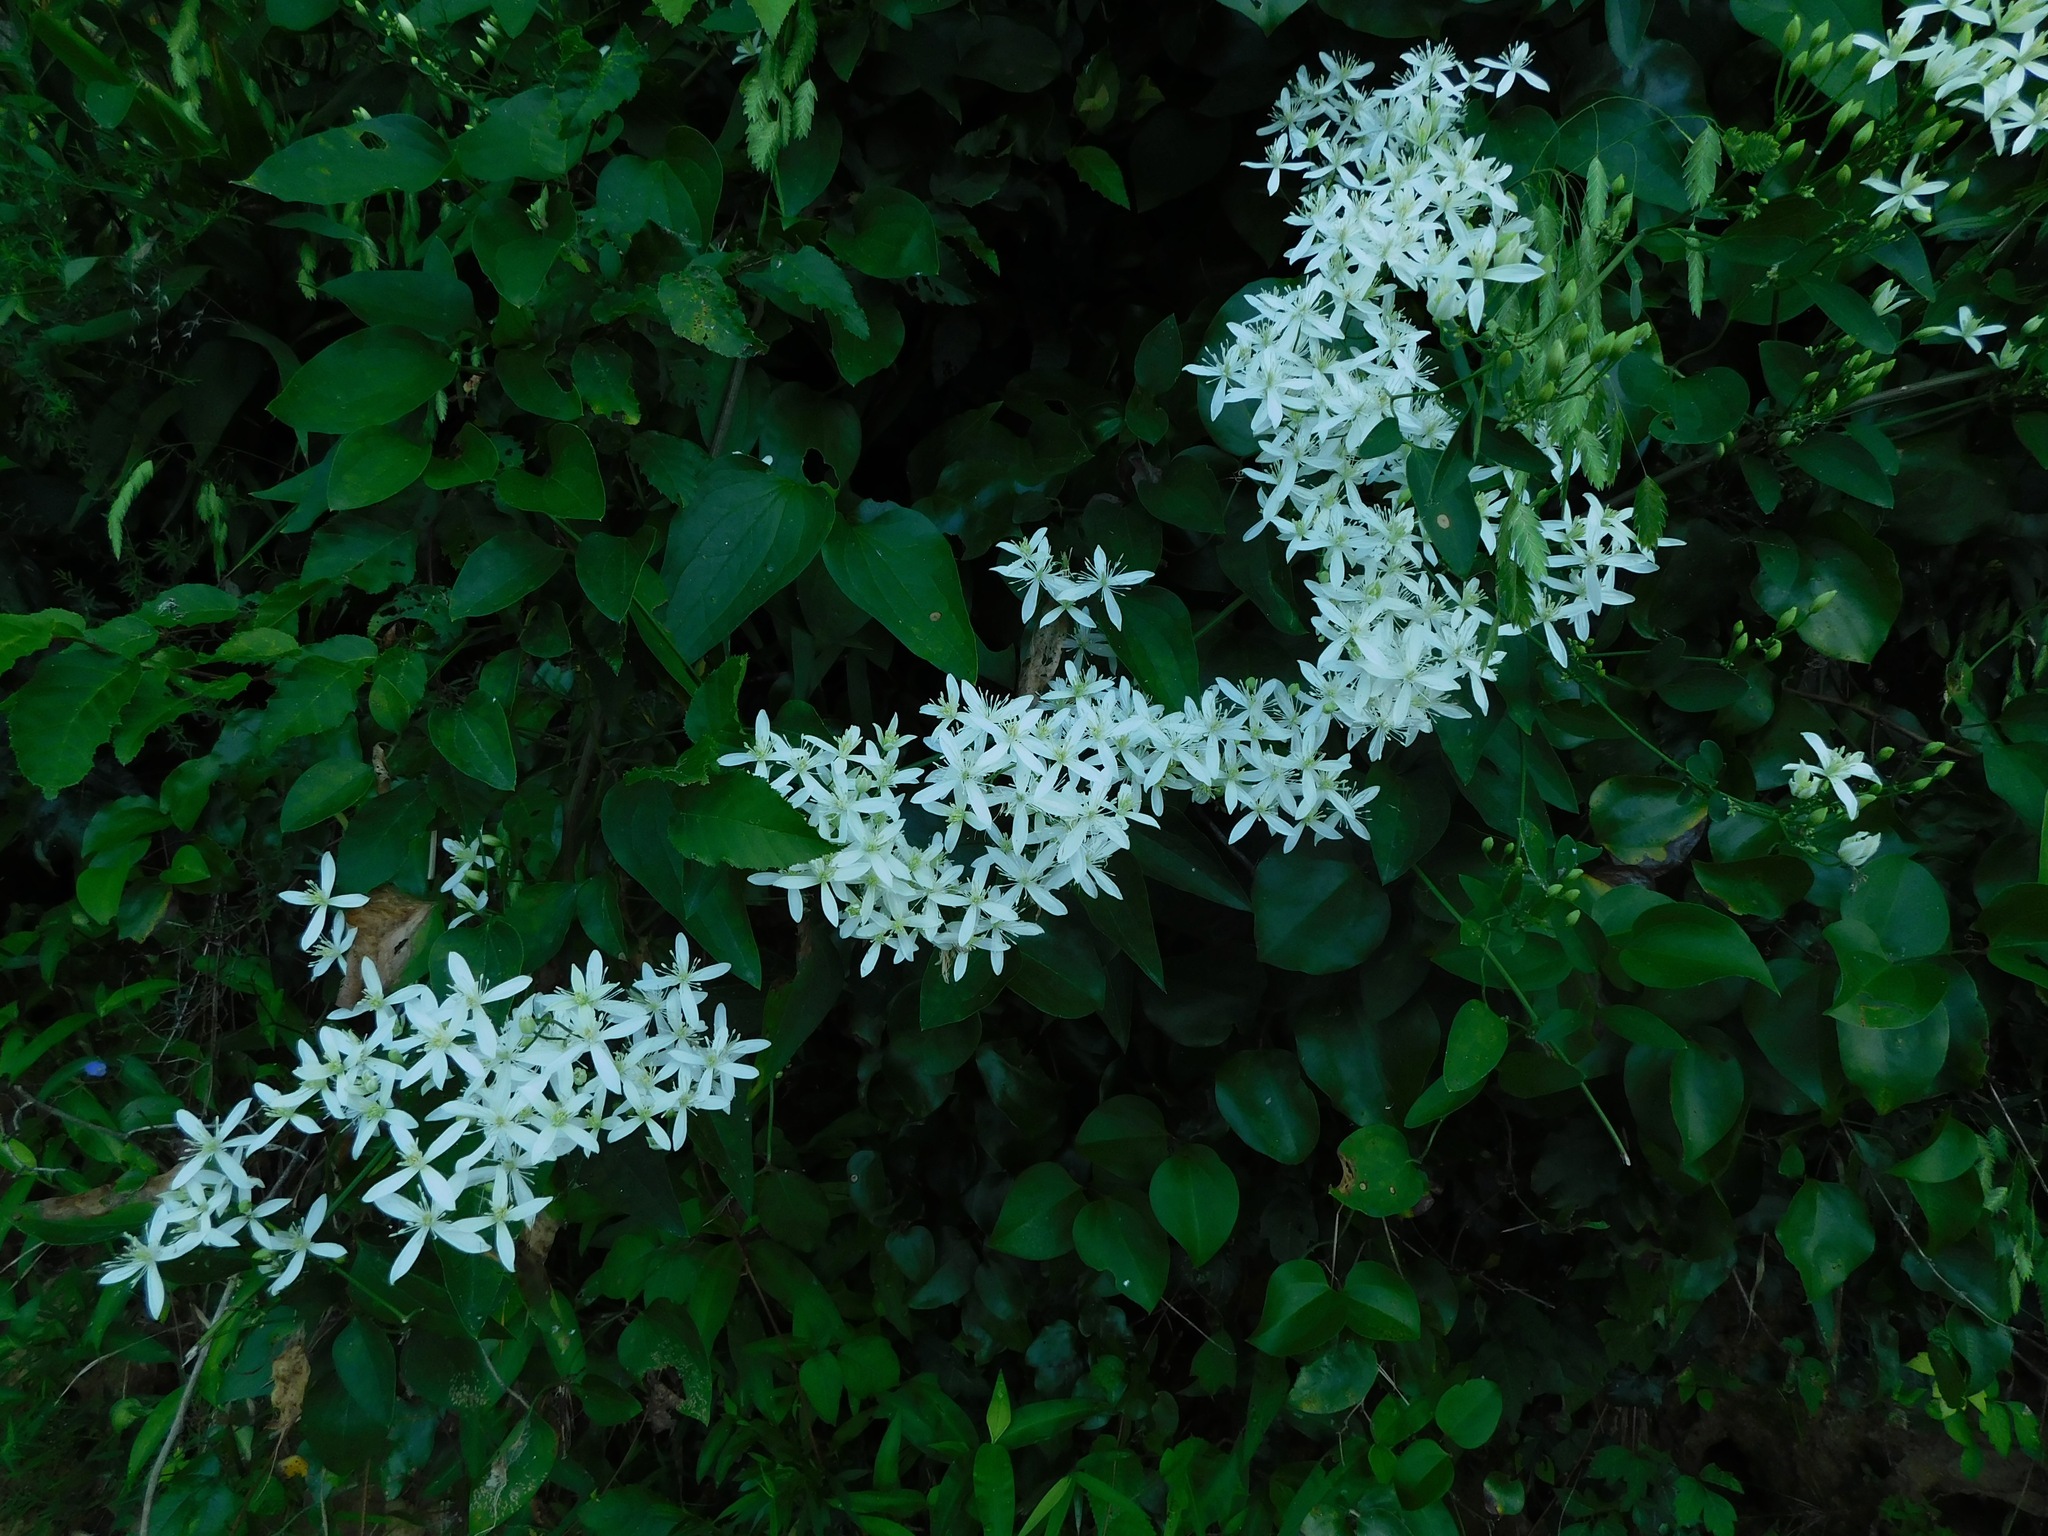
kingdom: Plantae
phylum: Tracheophyta
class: Magnoliopsida
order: Ranunculales
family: Ranunculaceae
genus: Clematis
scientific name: Clematis terniflora
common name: Sweet autumn clematis
